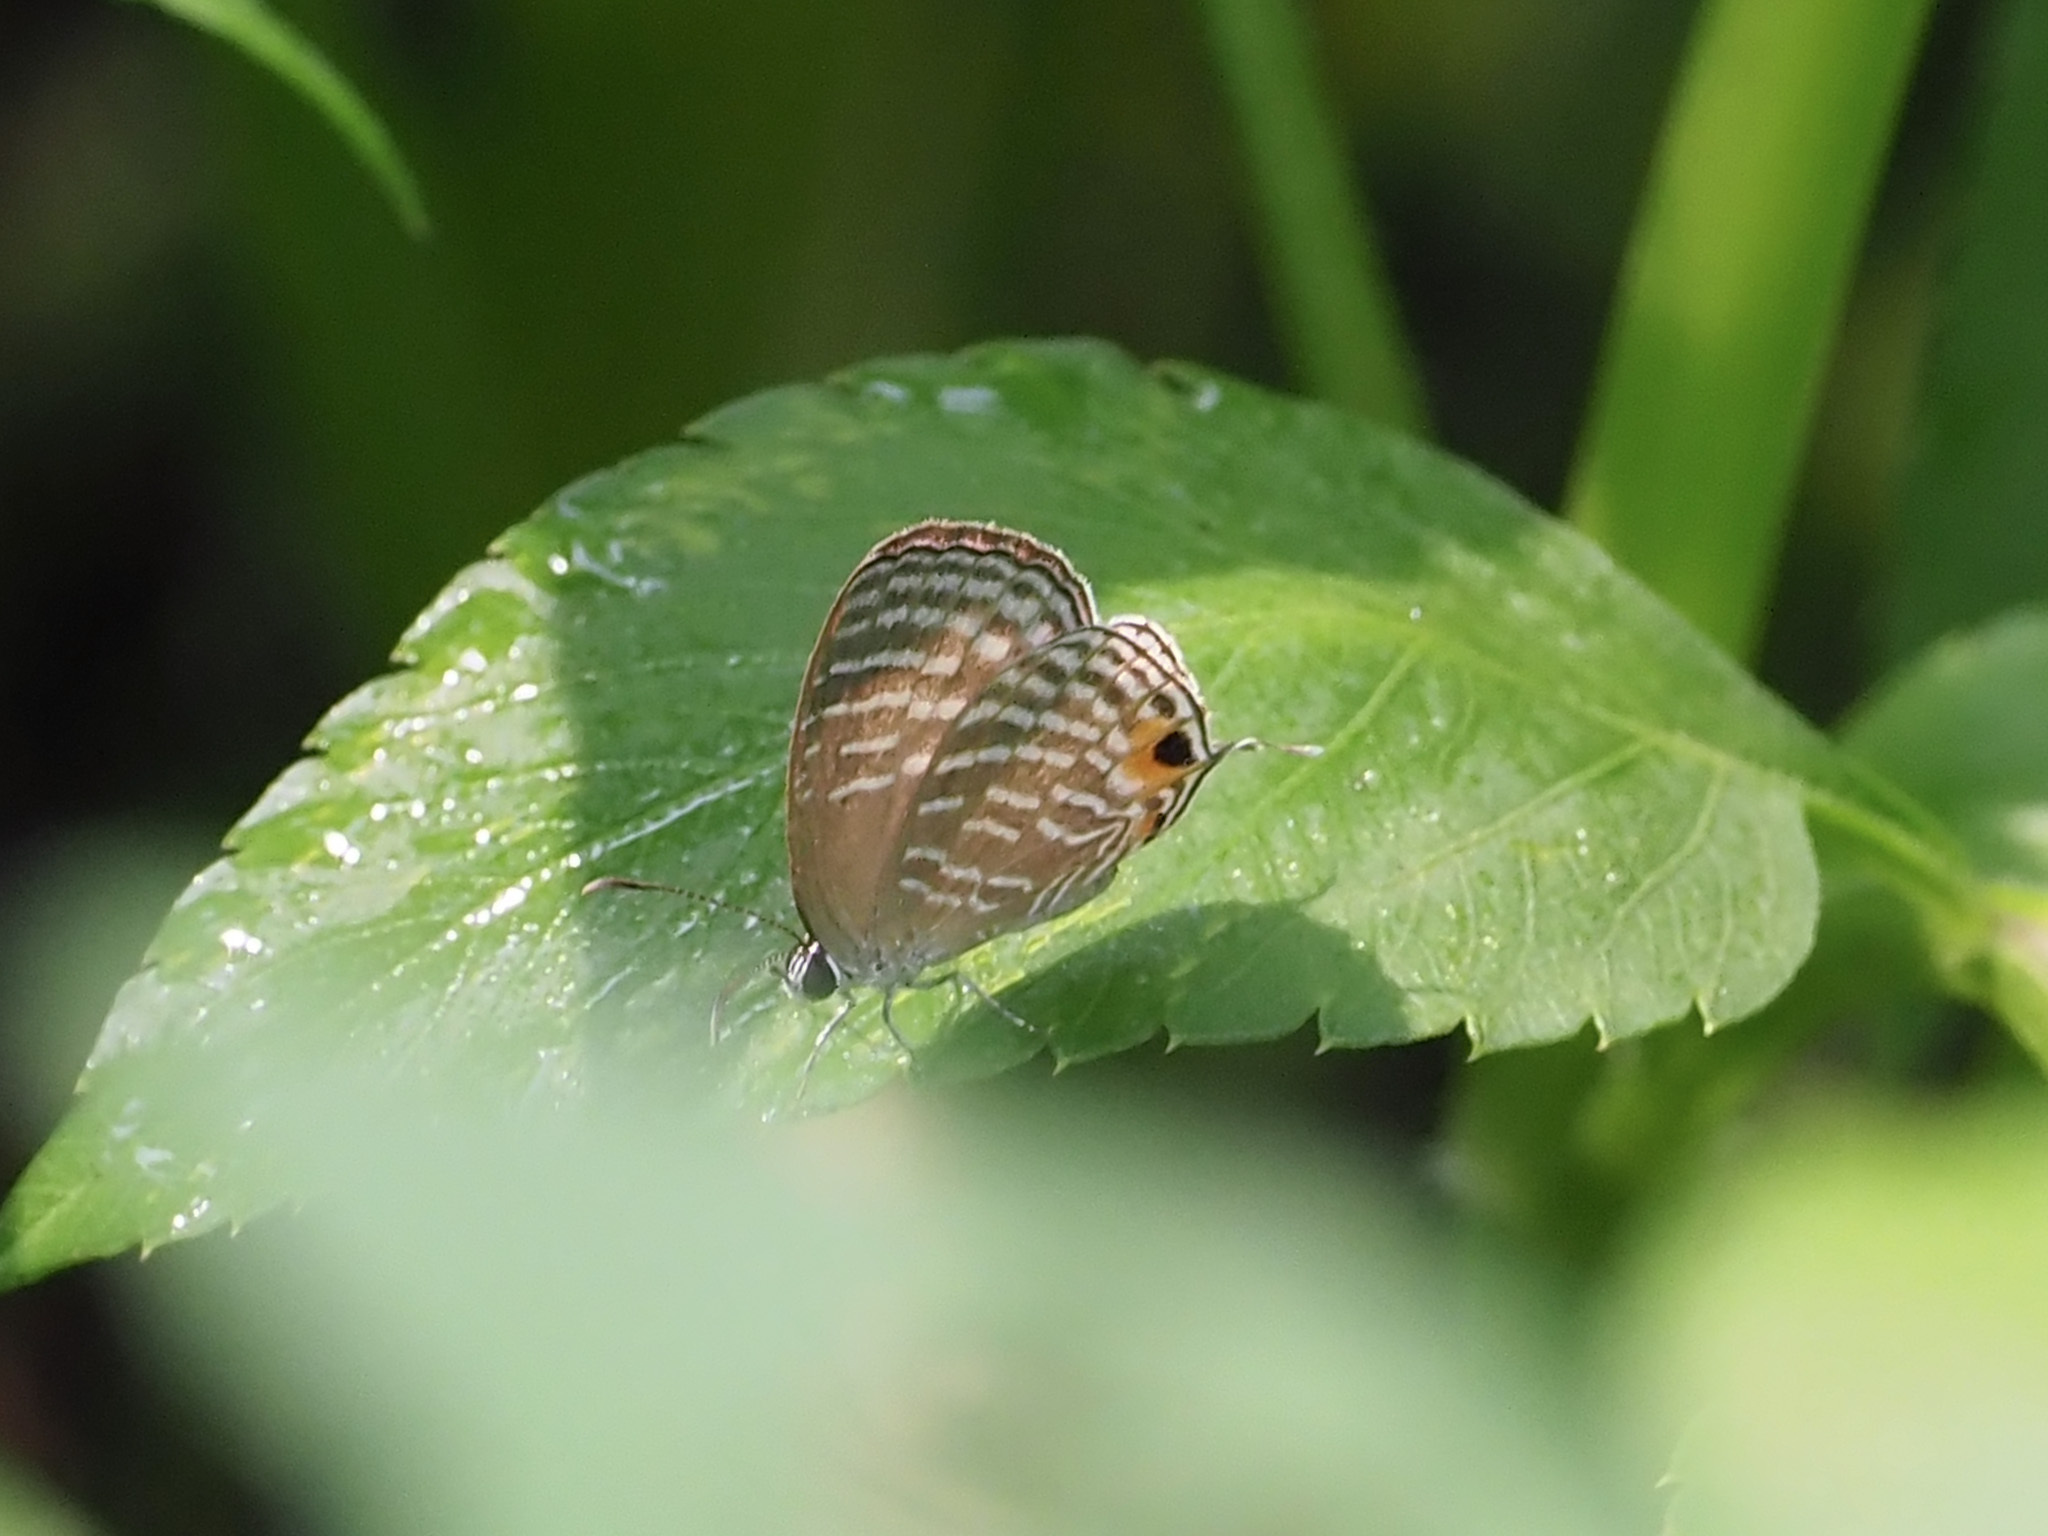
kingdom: Animalia
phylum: Arthropoda
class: Insecta
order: Lepidoptera
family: Lycaenidae
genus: Jamides
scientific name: Jamides celeno
